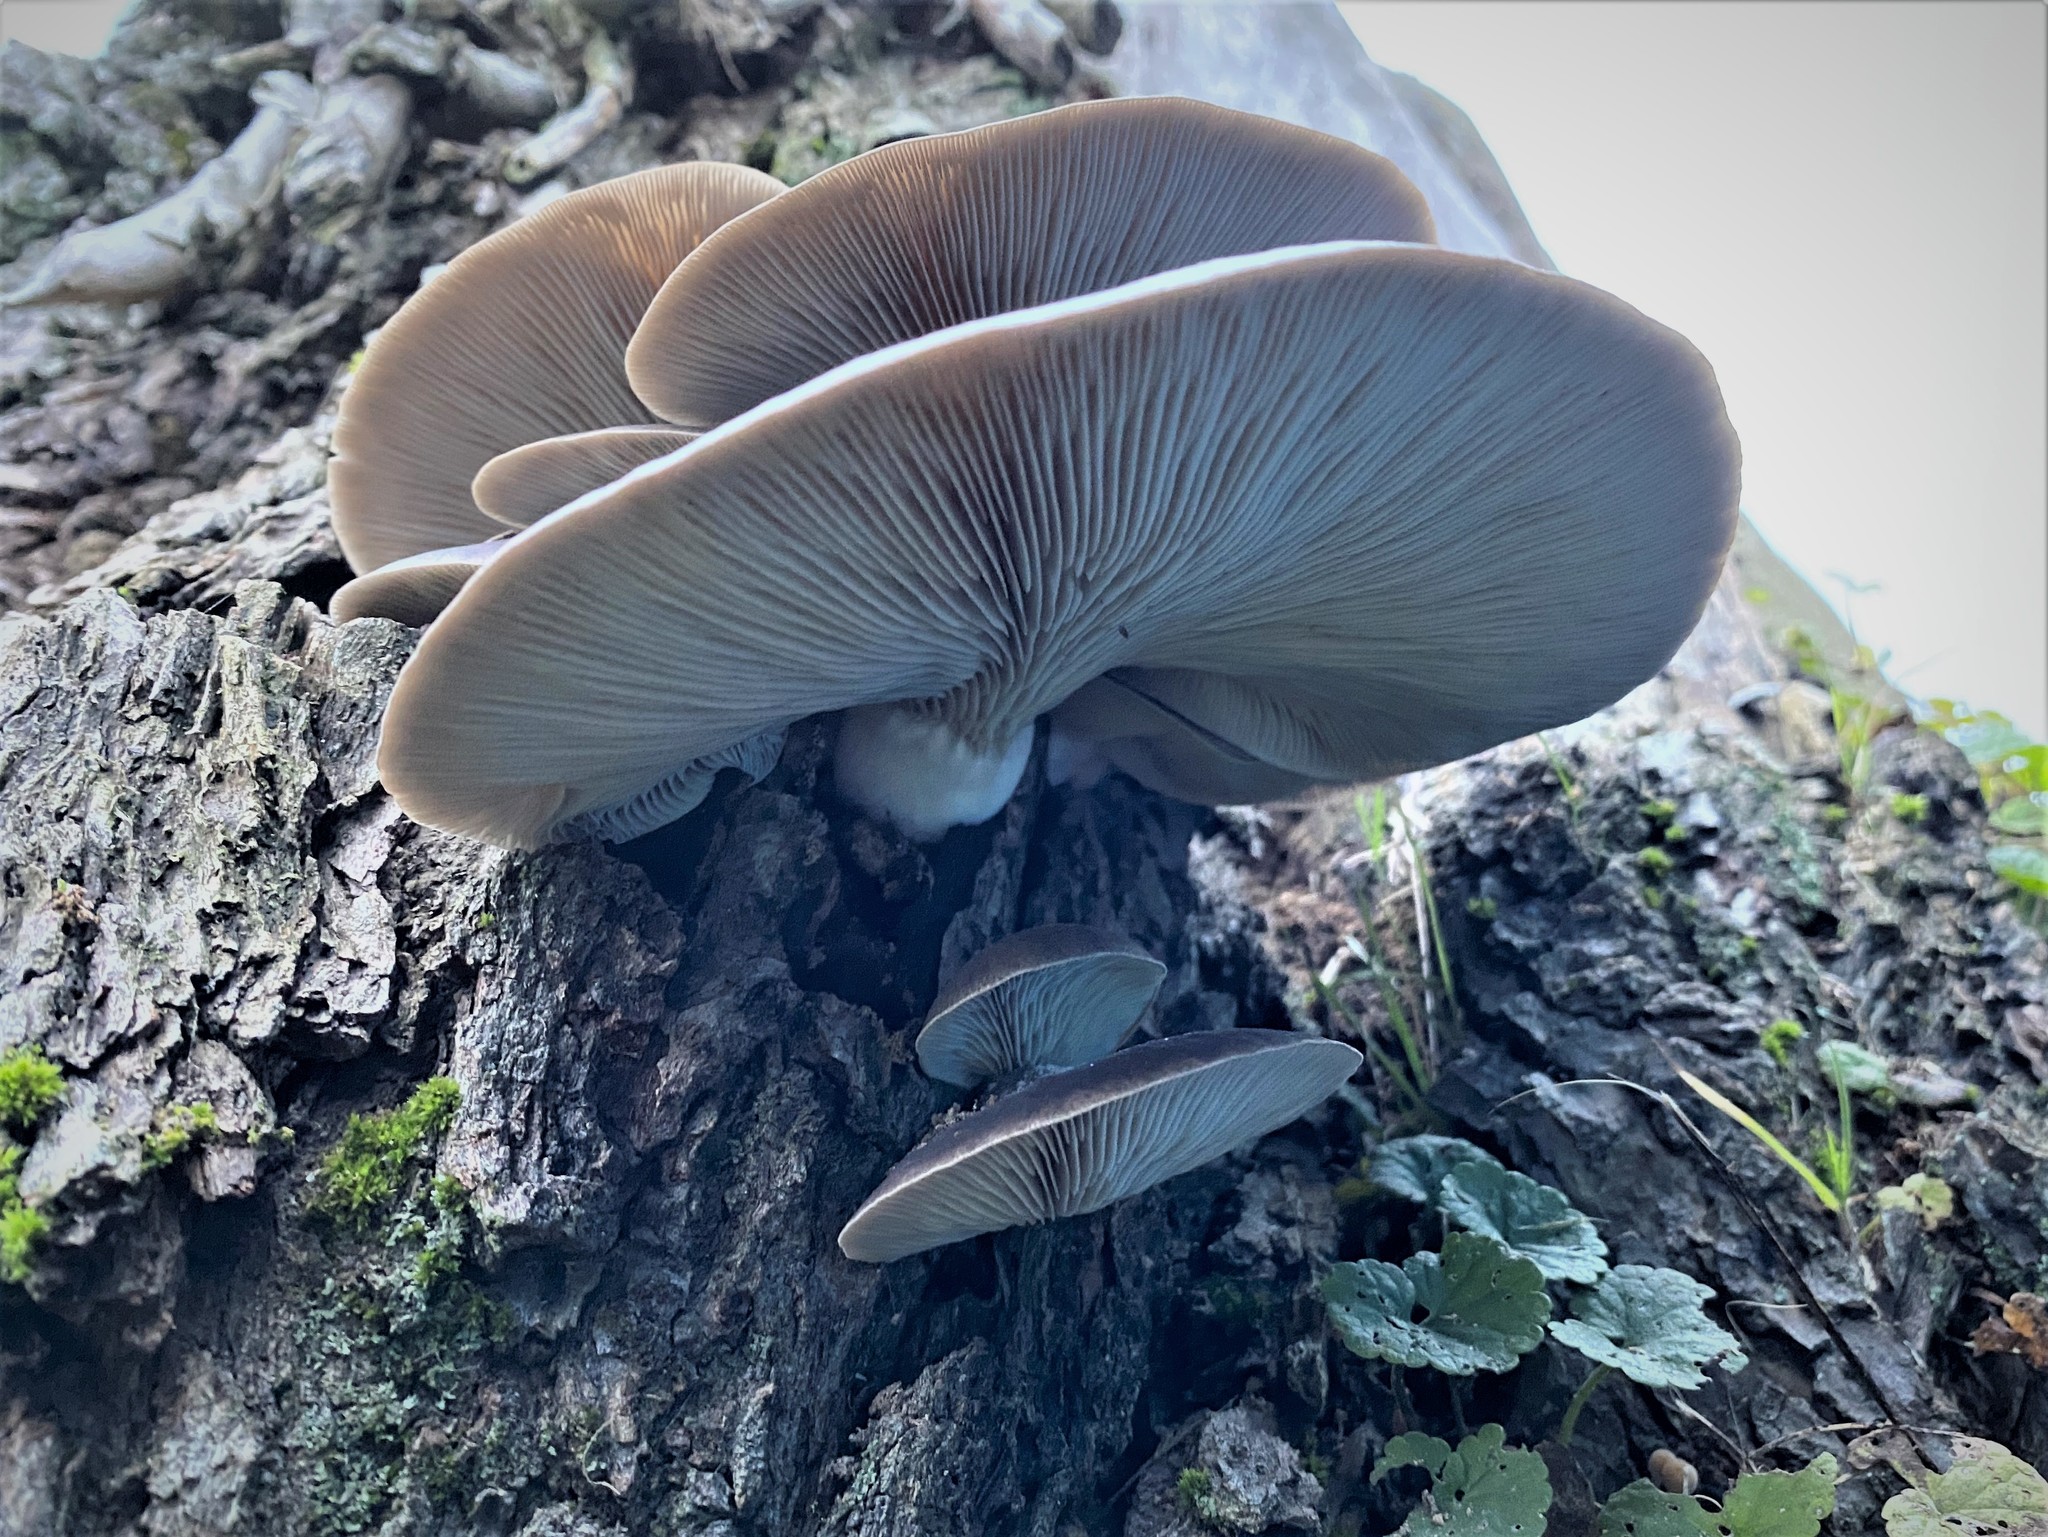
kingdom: Fungi
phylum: Basidiomycota
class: Agaricomycetes
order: Agaricales
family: Pleurotaceae
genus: Pleurotus
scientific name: Pleurotus ostreatus
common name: Oyster mushroom
